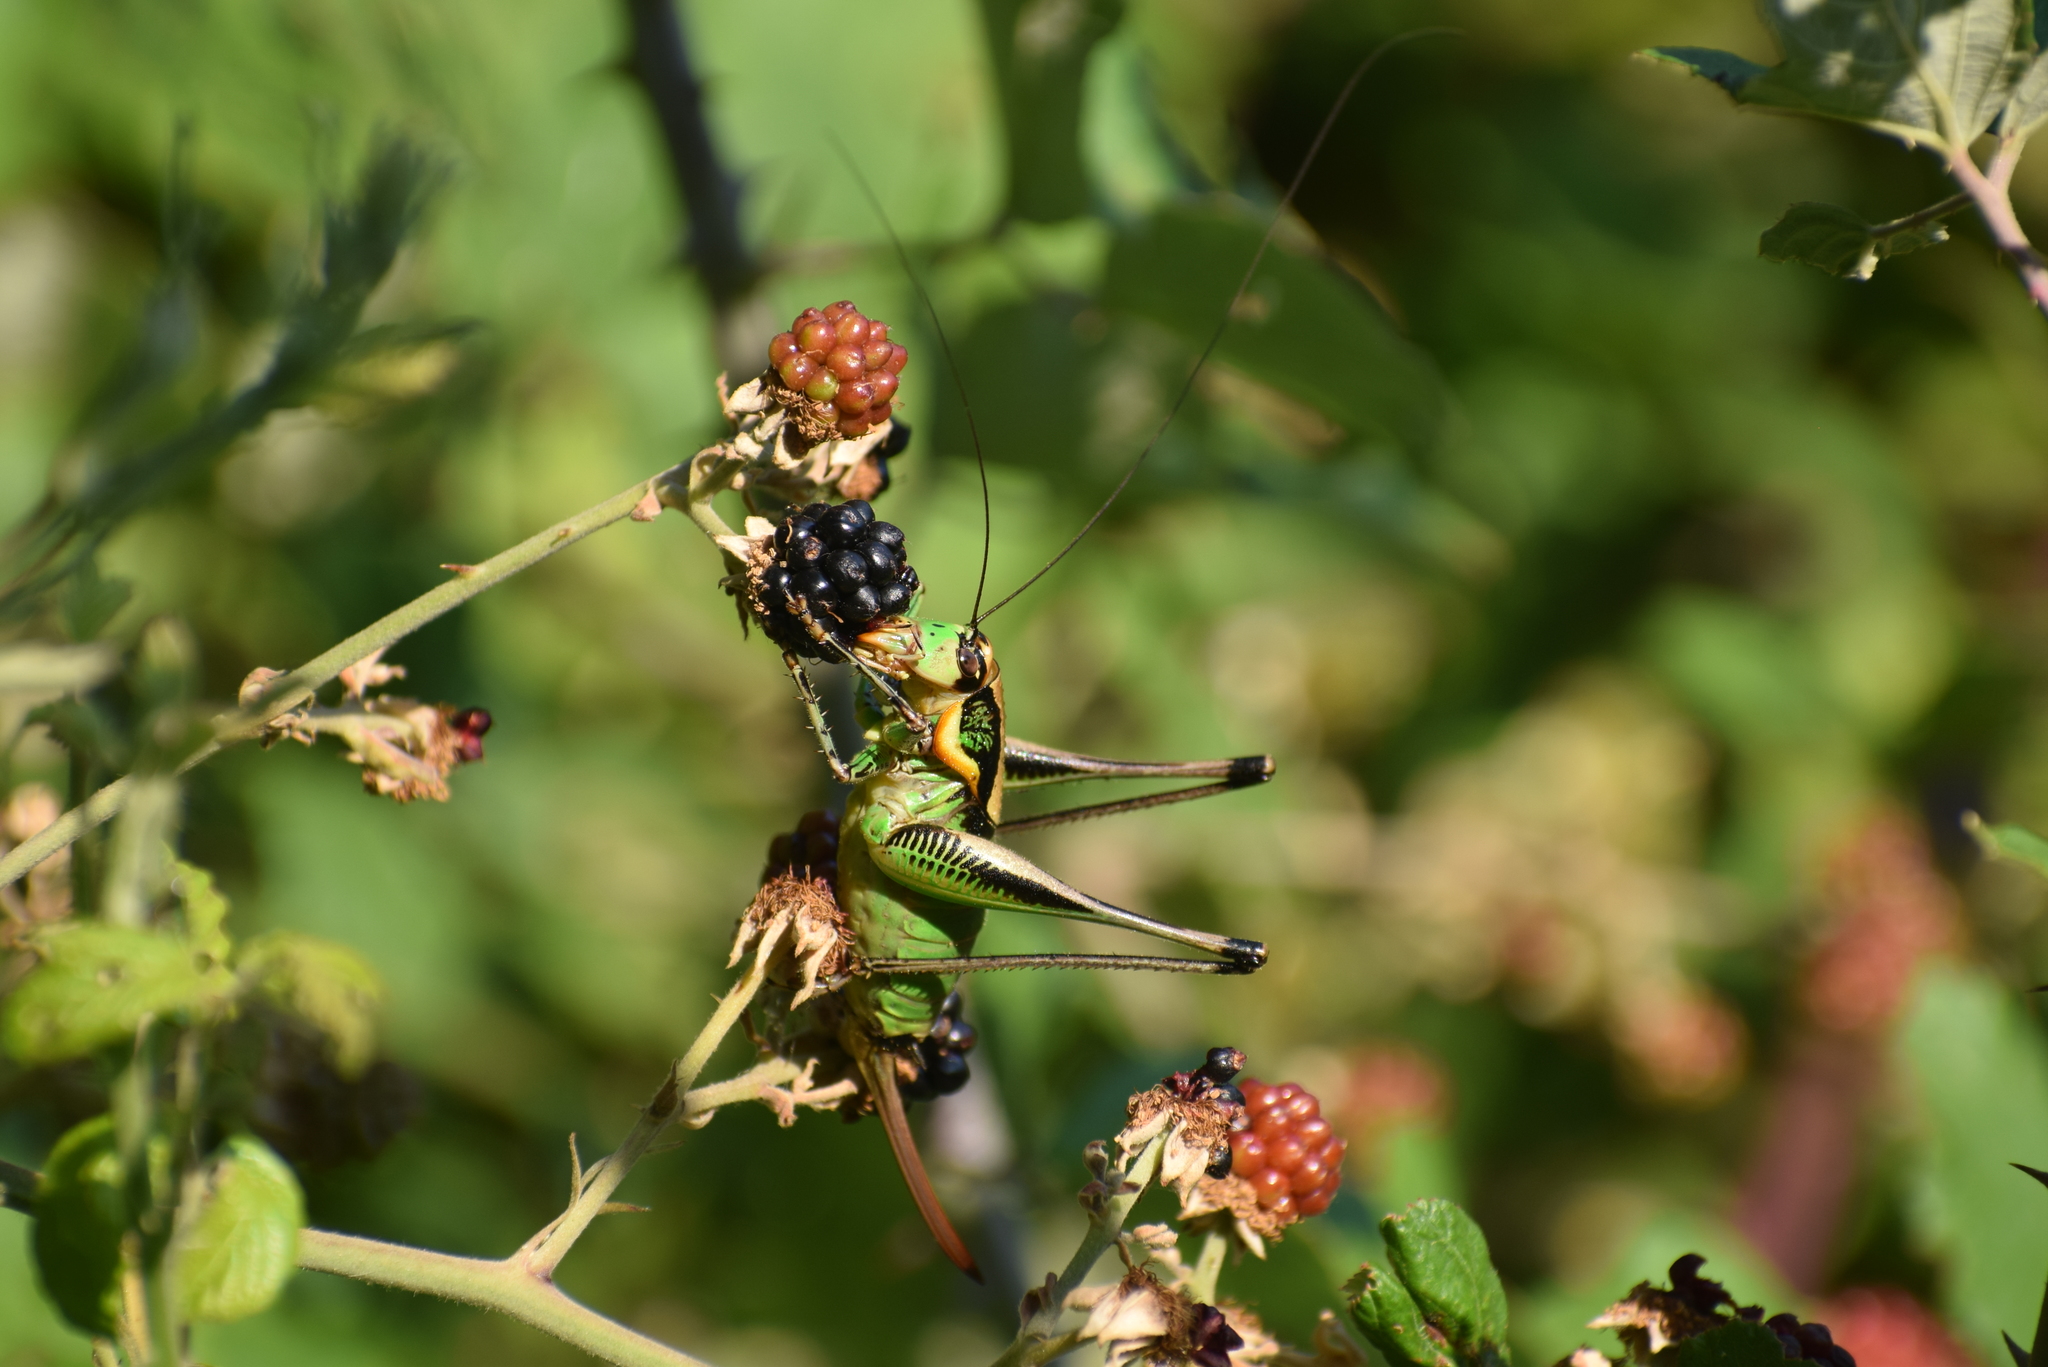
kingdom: Animalia
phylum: Arthropoda
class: Insecta
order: Orthoptera
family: Tettigoniidae
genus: Eupholidoptera
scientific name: Eupholidoptera schmidti
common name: Schmidt's marbled bush-cricket
